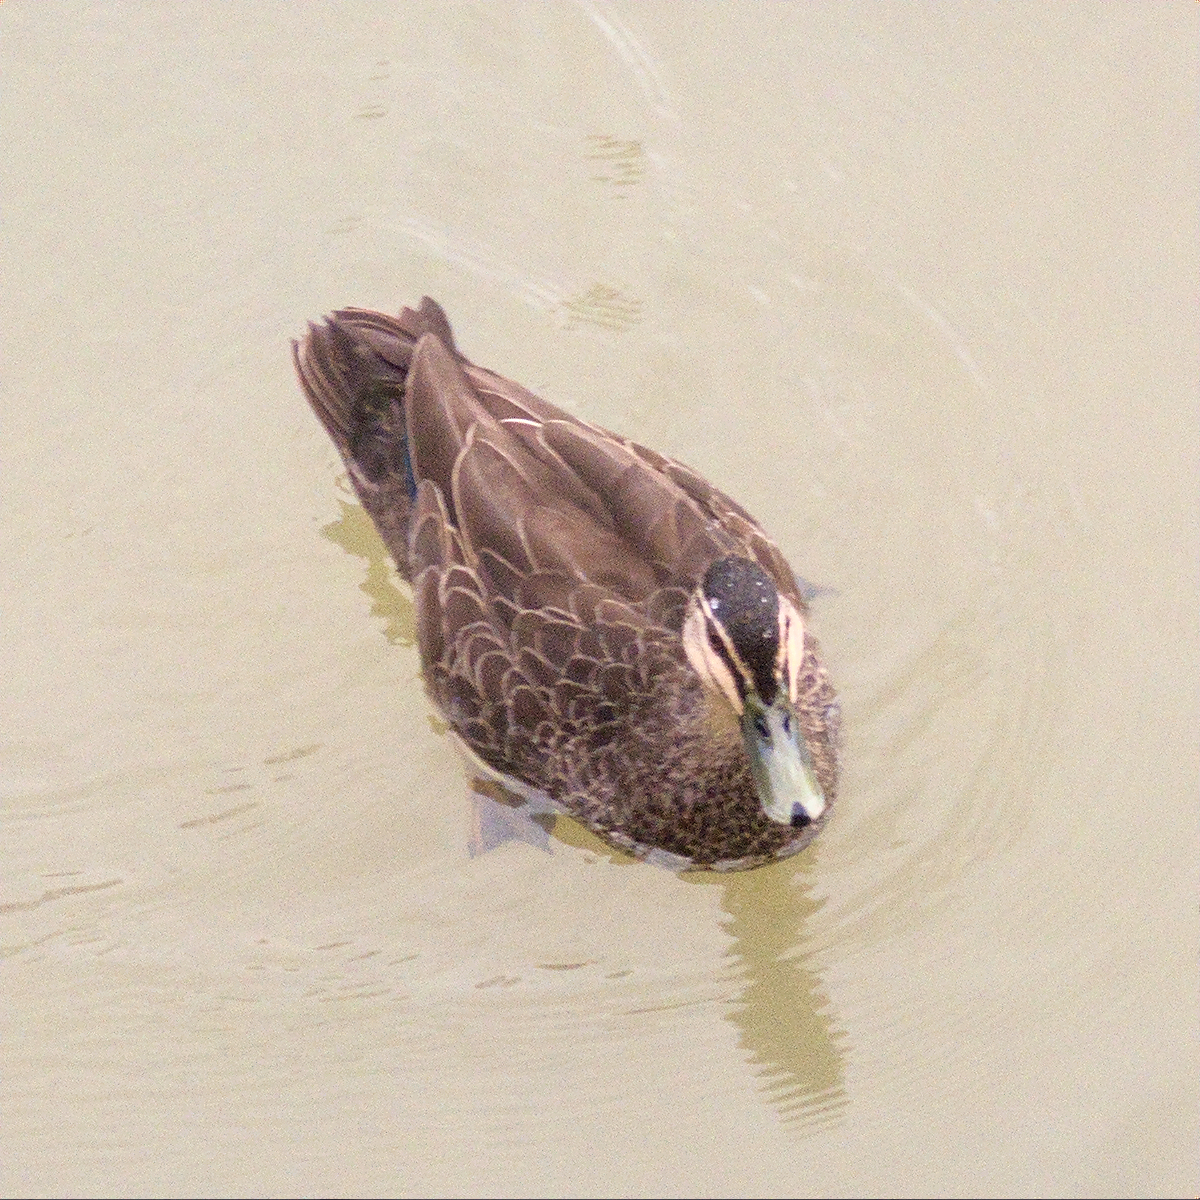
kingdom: Animalia
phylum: Chordata
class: Aves
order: Anseriformes
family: Anatidae
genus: Anas
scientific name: Anas superciliosa
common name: Pacific black duck
